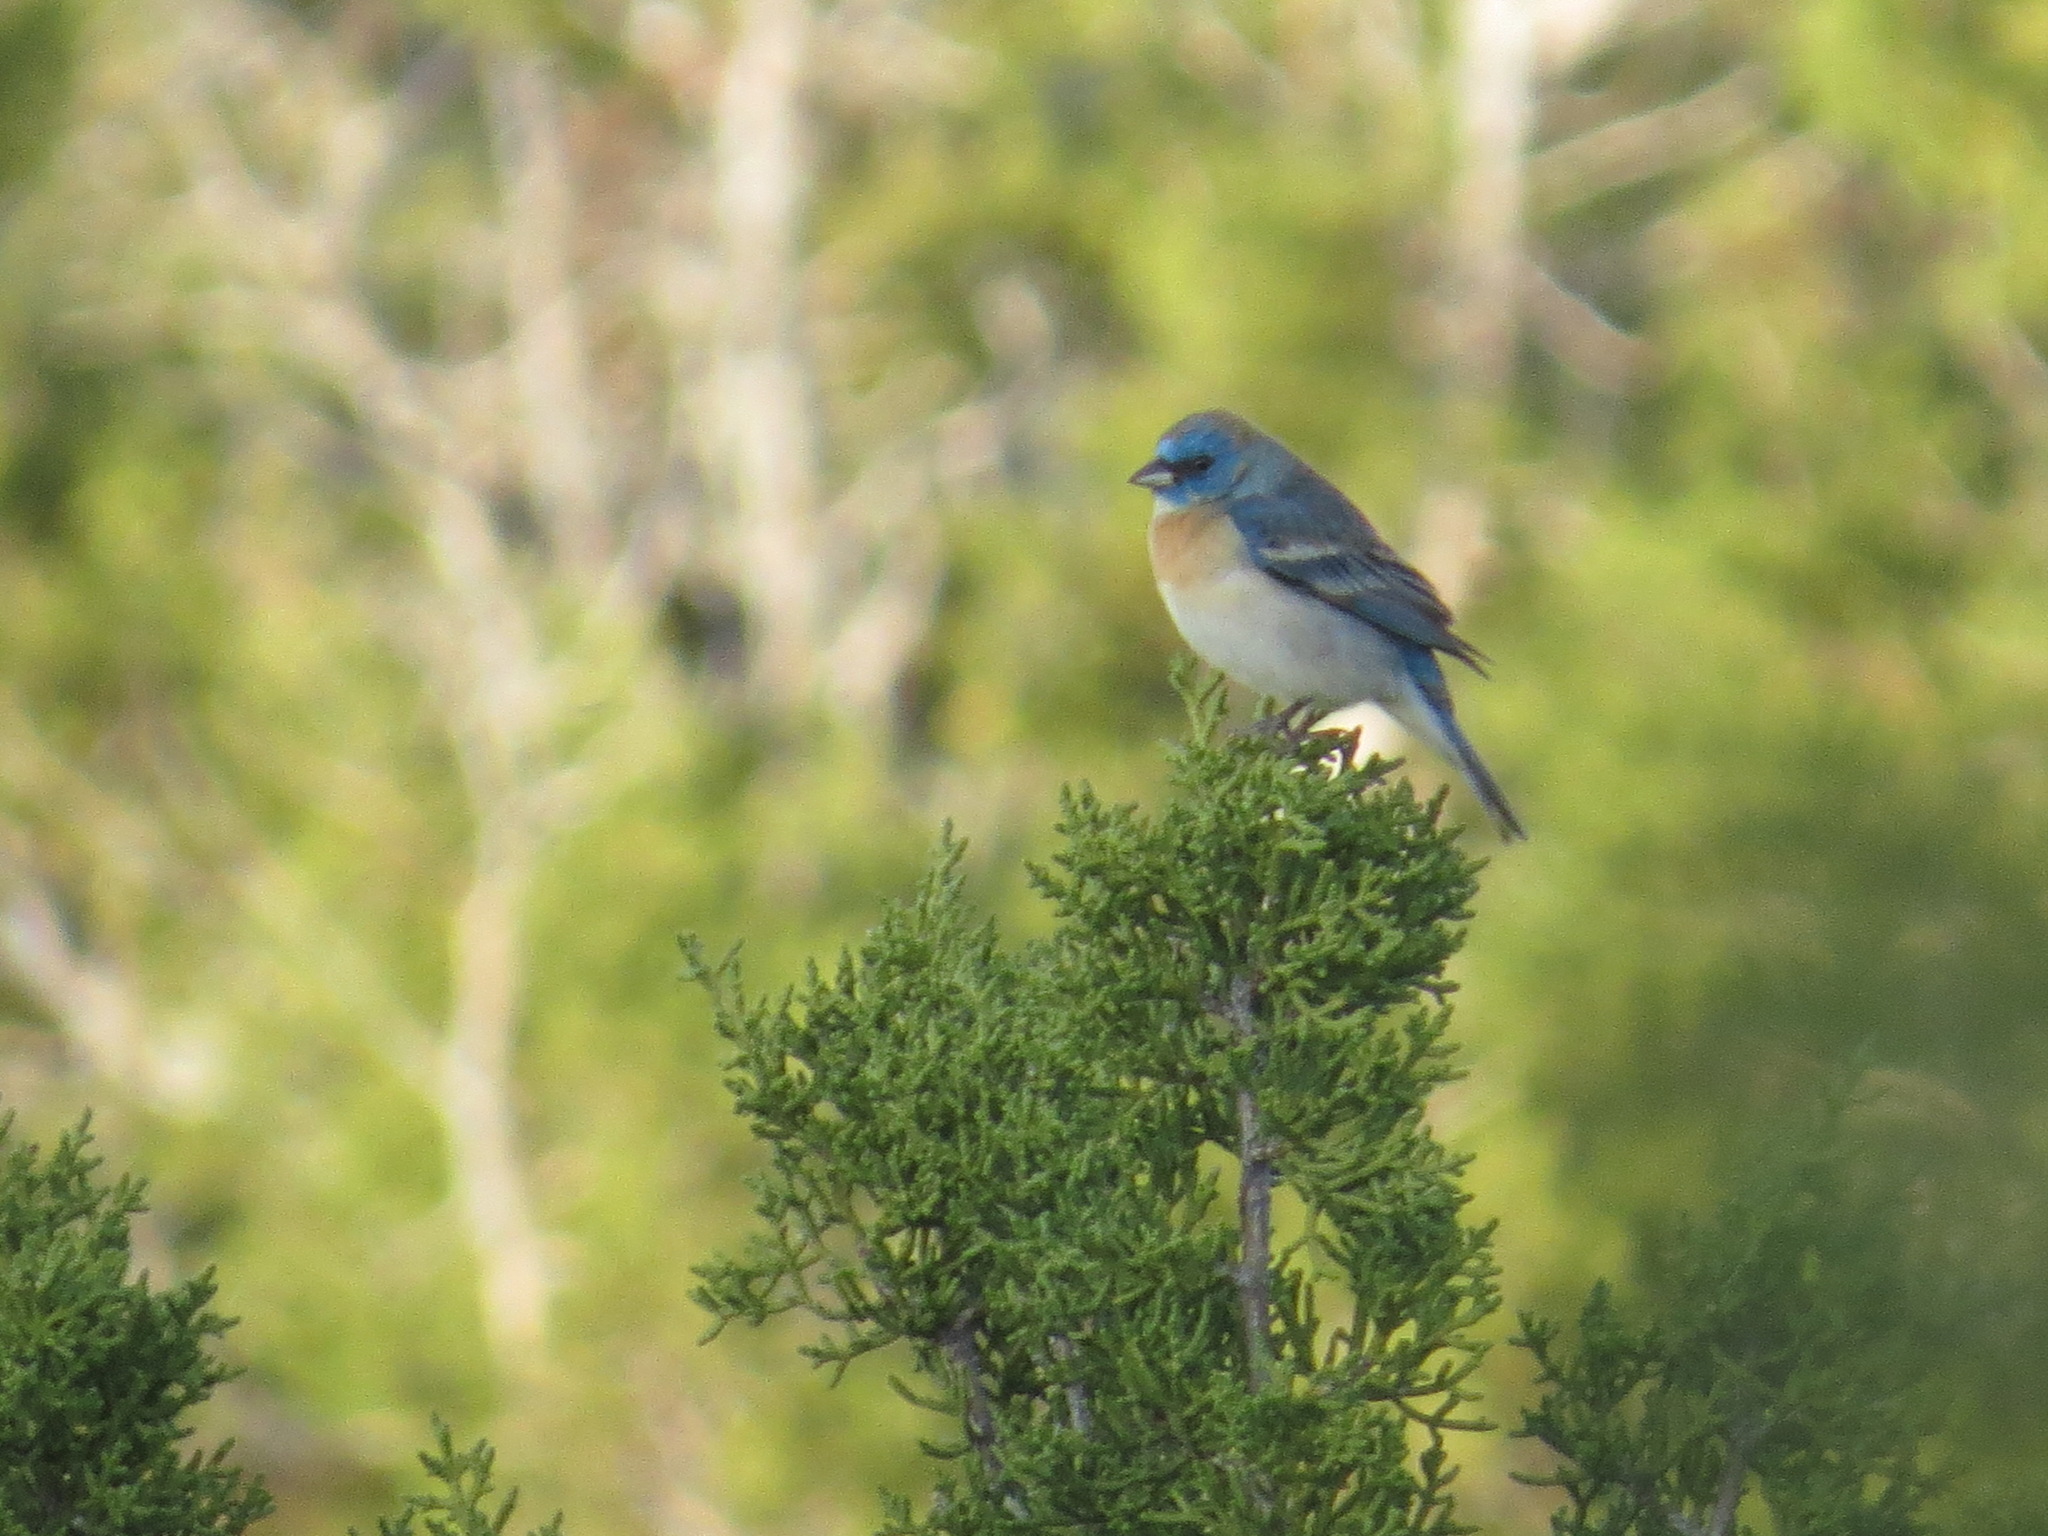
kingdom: Animalia
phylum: Chordata
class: Aves
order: Passeriformes
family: Cardinalidae
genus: Passerina
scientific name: Passerina amoena
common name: Lazuli bunting
